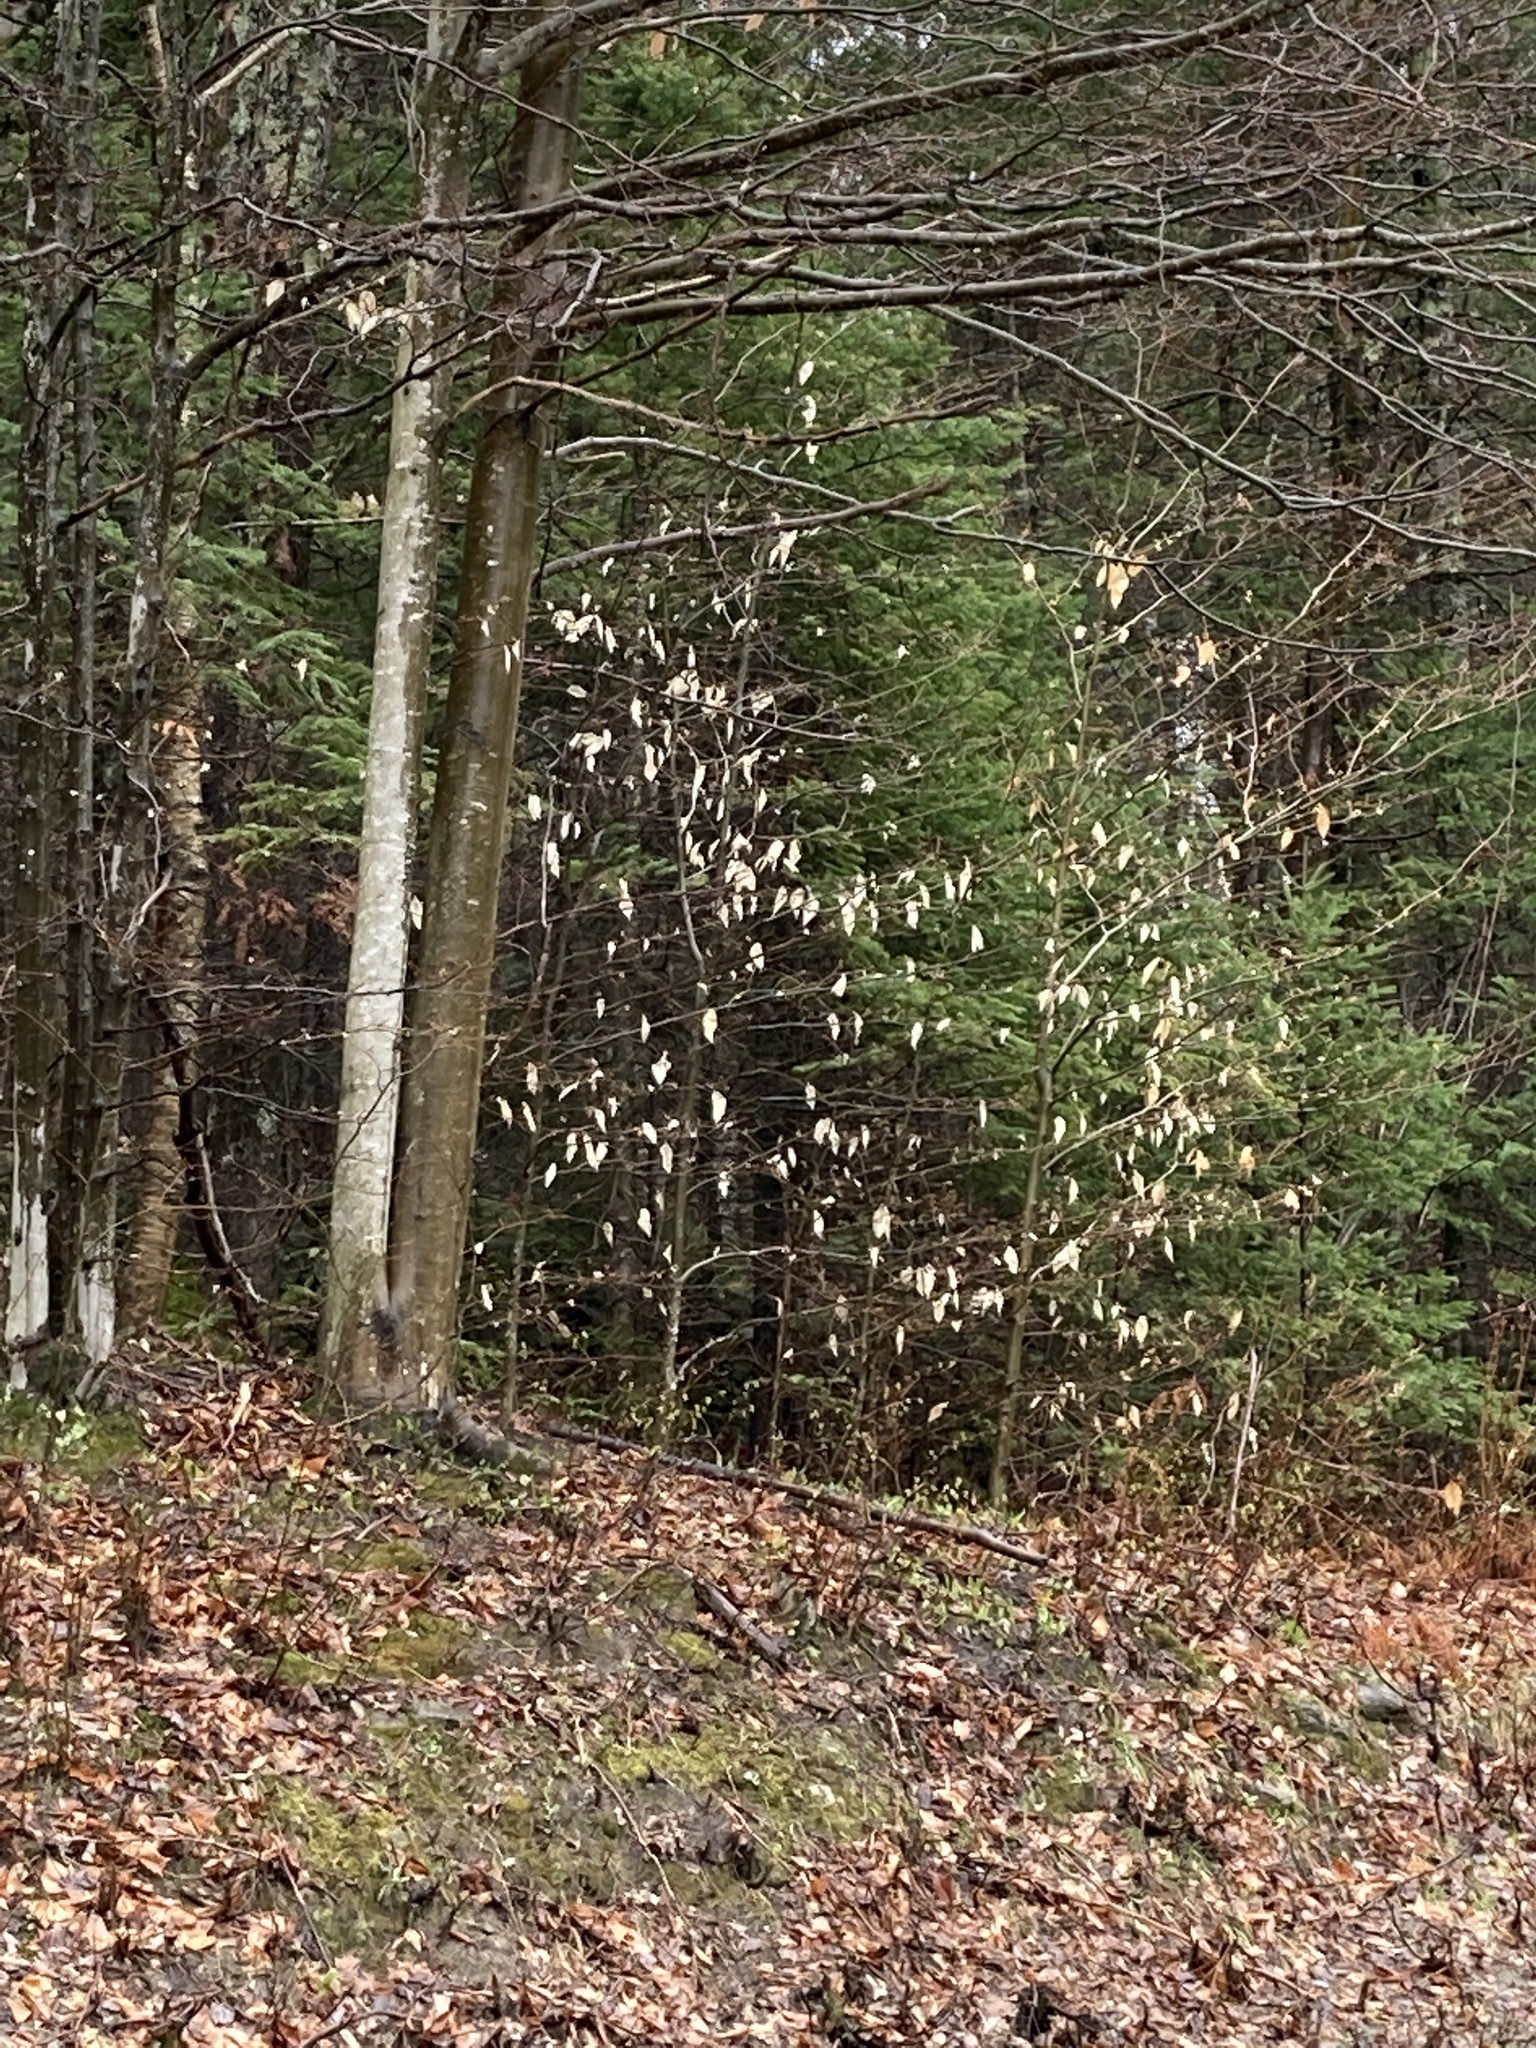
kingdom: Plantae
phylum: Tracheophyta
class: Magnoliopsida
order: Fagales
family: Fagaceae
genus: Fagus
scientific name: Fagus grandifolia
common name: American beech
